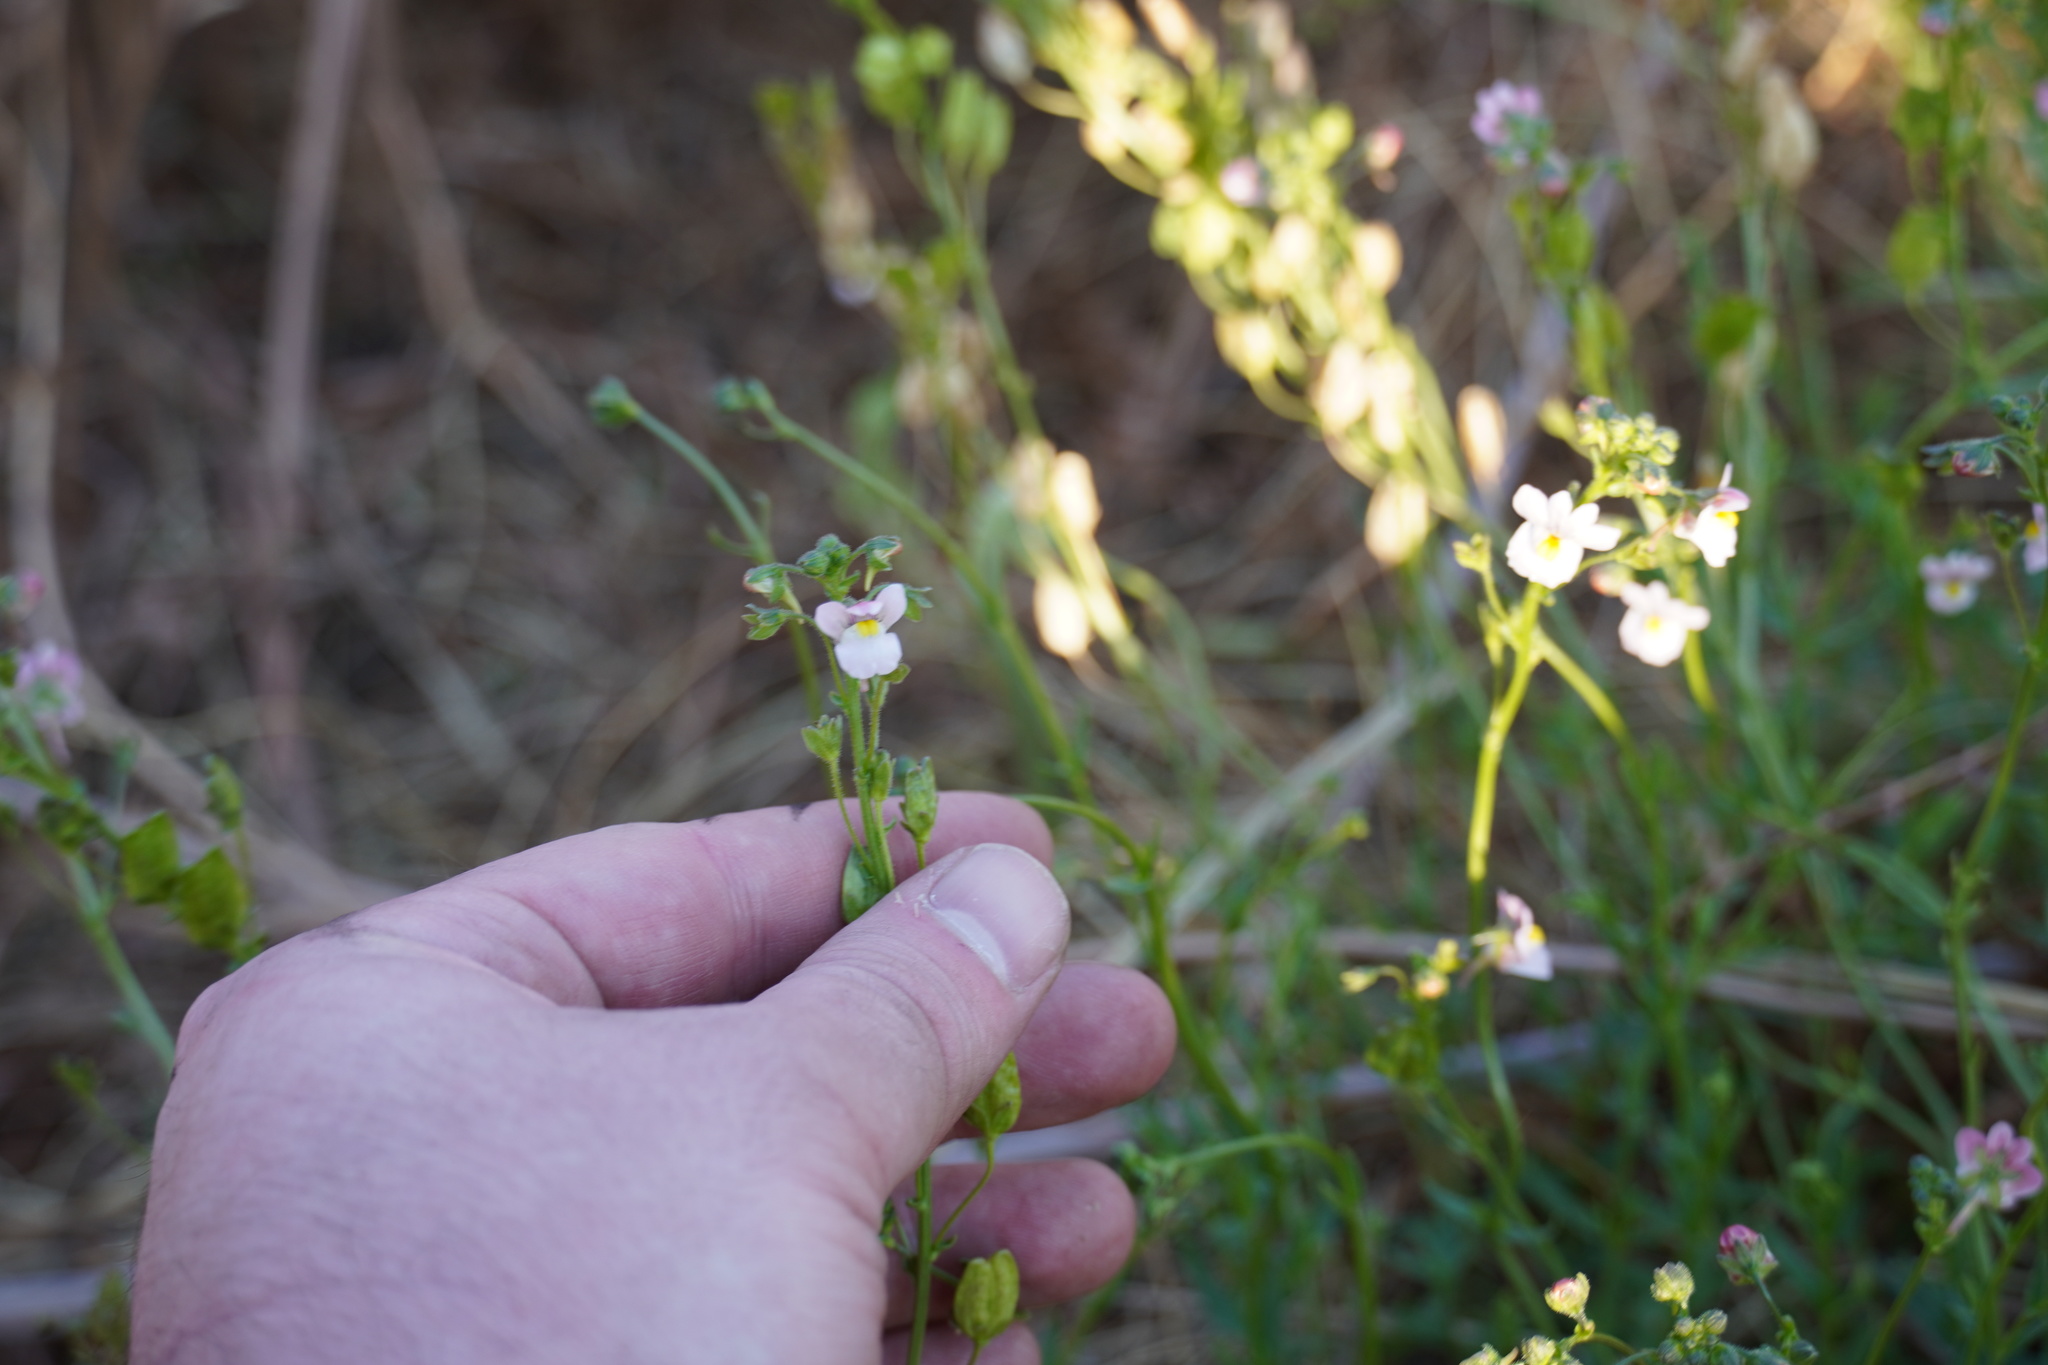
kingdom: Plantae
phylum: Tracheophyta
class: Magnoliopsida
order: Lamiales
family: Scrophulariaceae
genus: Nemesia
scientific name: Nemesia fruticans
